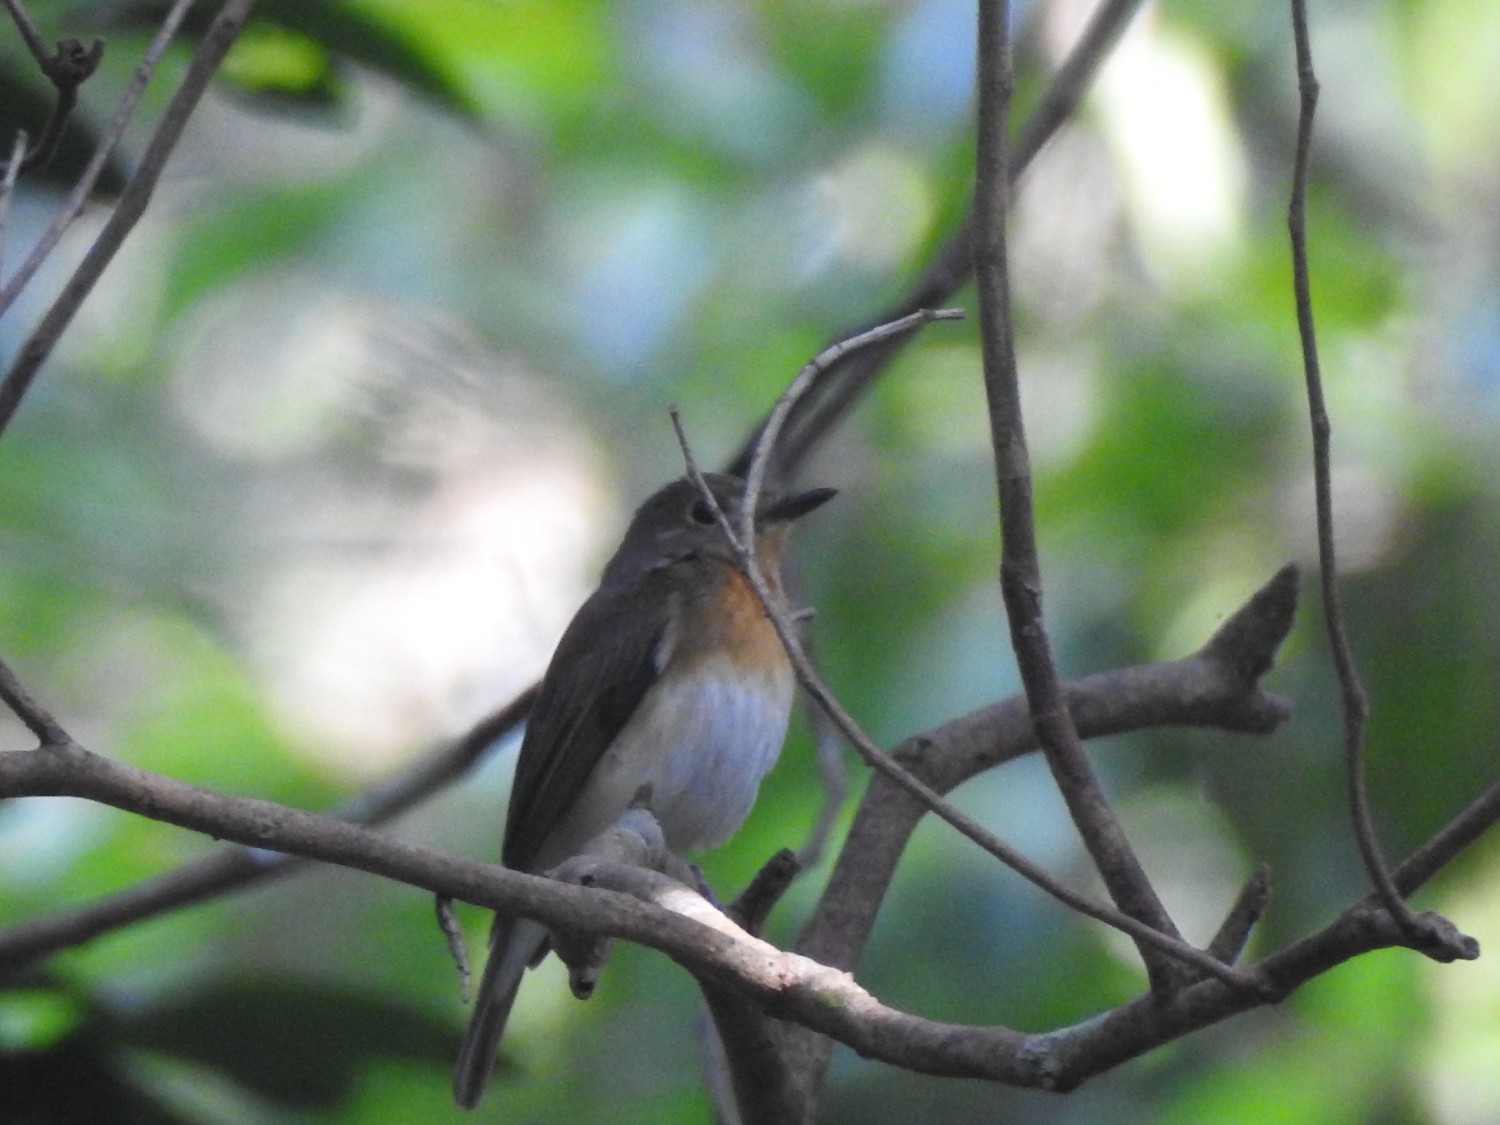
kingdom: Animalia
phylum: Chordata
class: Aves
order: Passeriformes
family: Muscicapidae
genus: Cyornis
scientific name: Cyornis rubeculoides
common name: Blue-throated blue flycatcher
